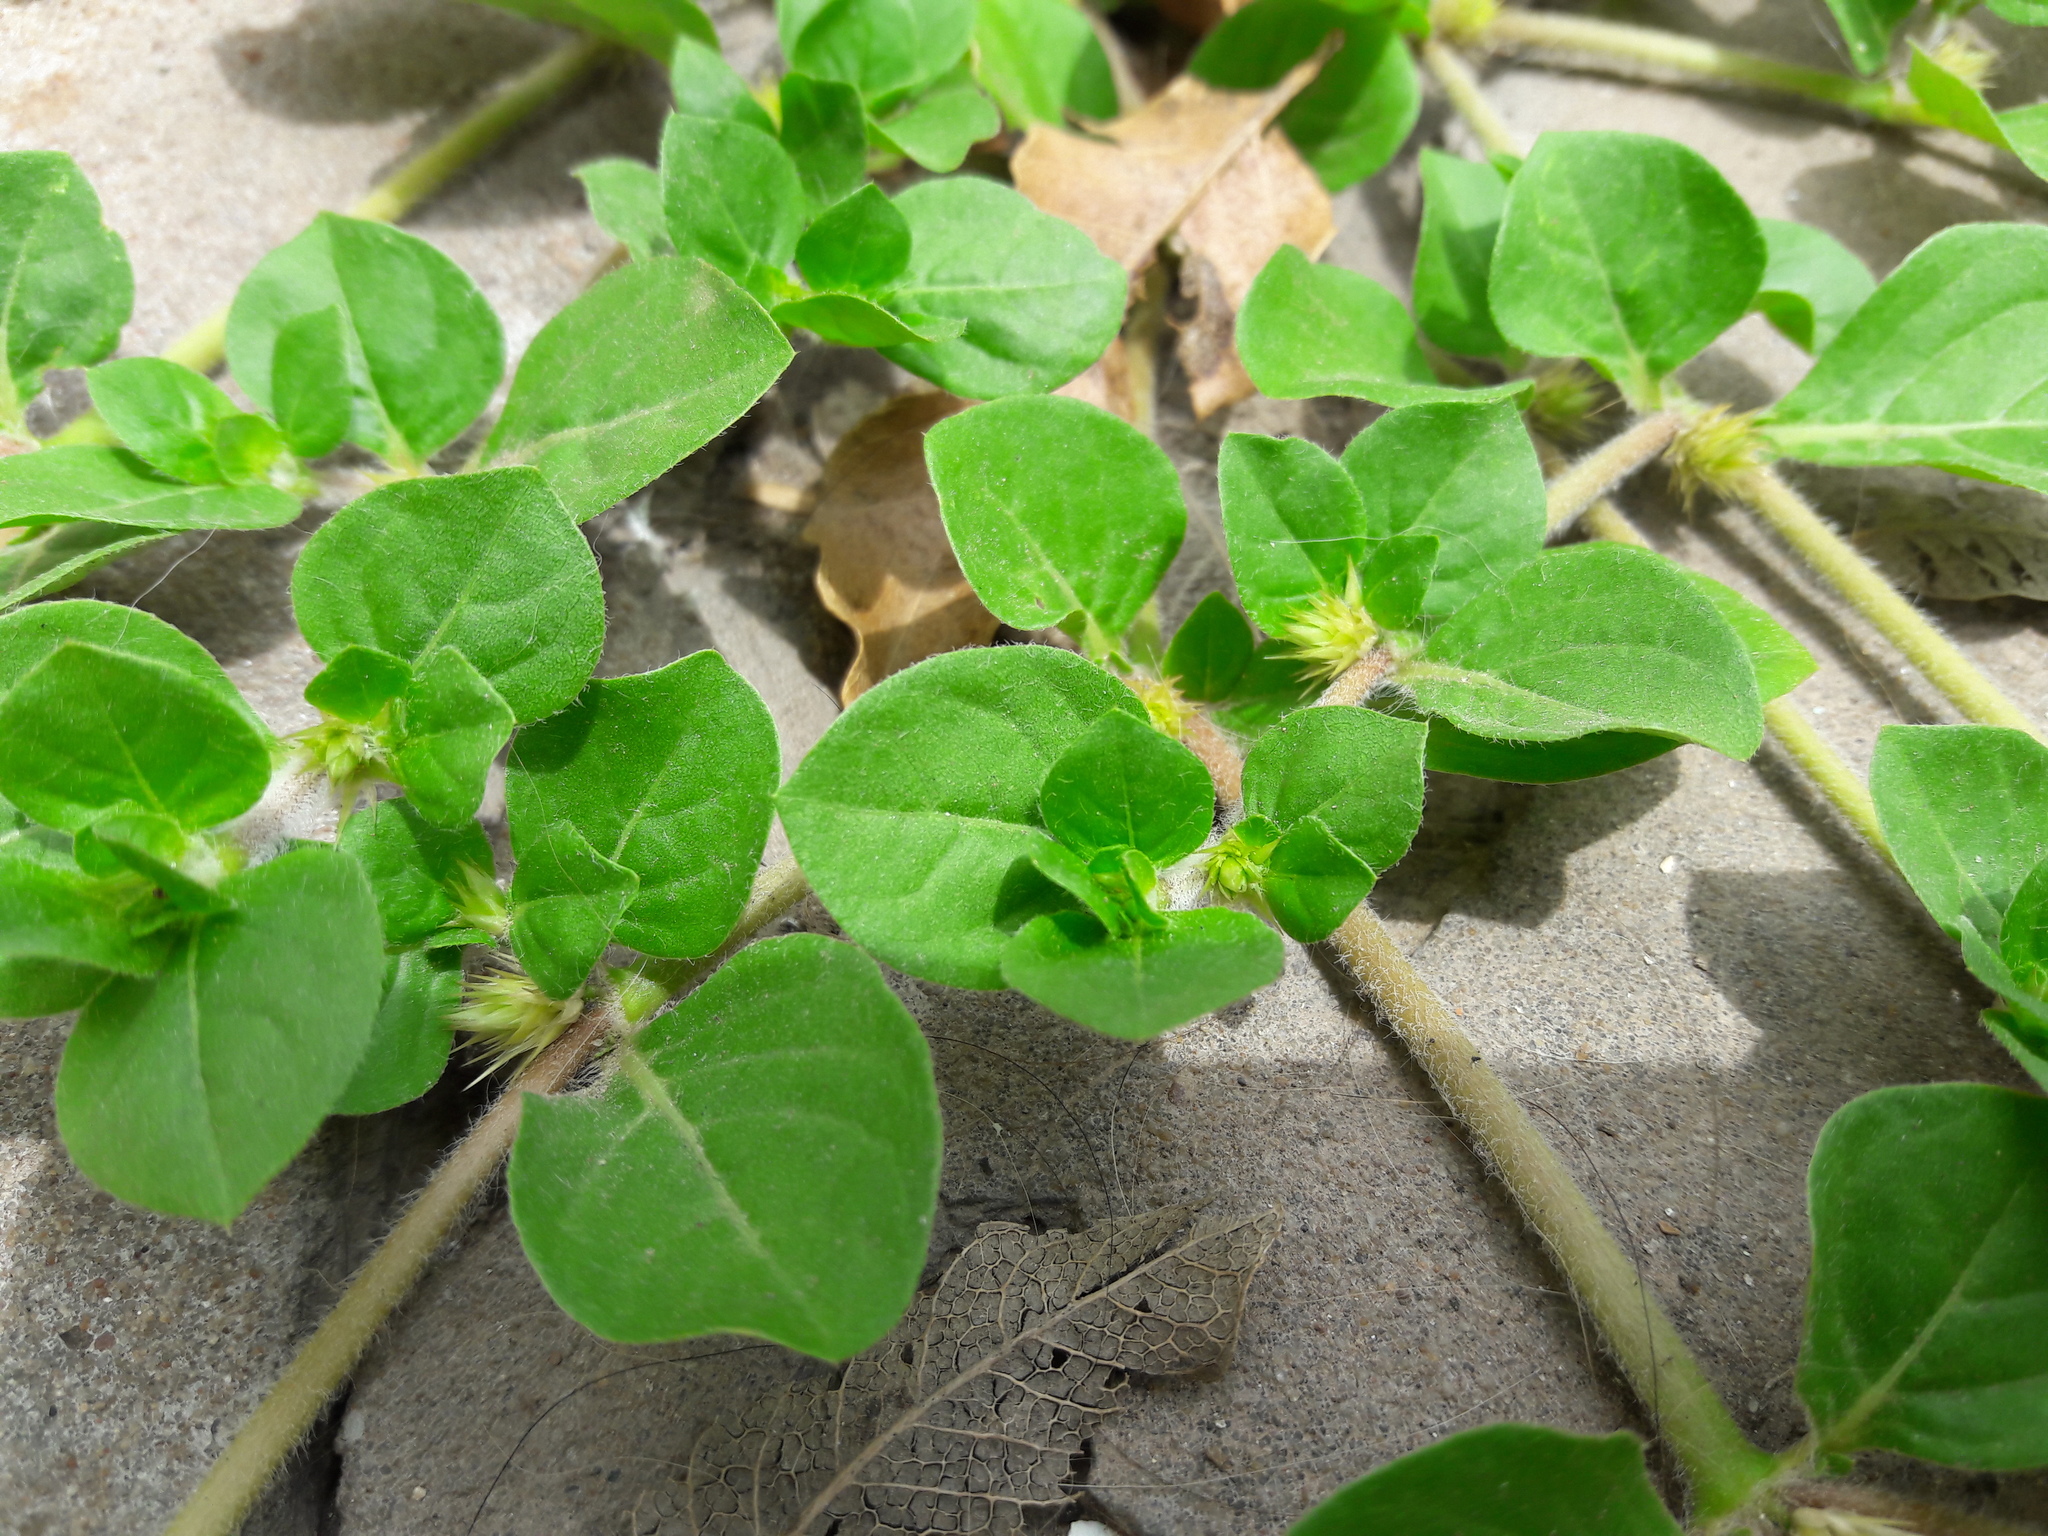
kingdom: Plantae
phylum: Tracheophyta
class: Magnoliopsida
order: Caryophyllales
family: Amaranthaceae
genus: Alternanthera
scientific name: Alternanthera pungens
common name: Khakiweed
